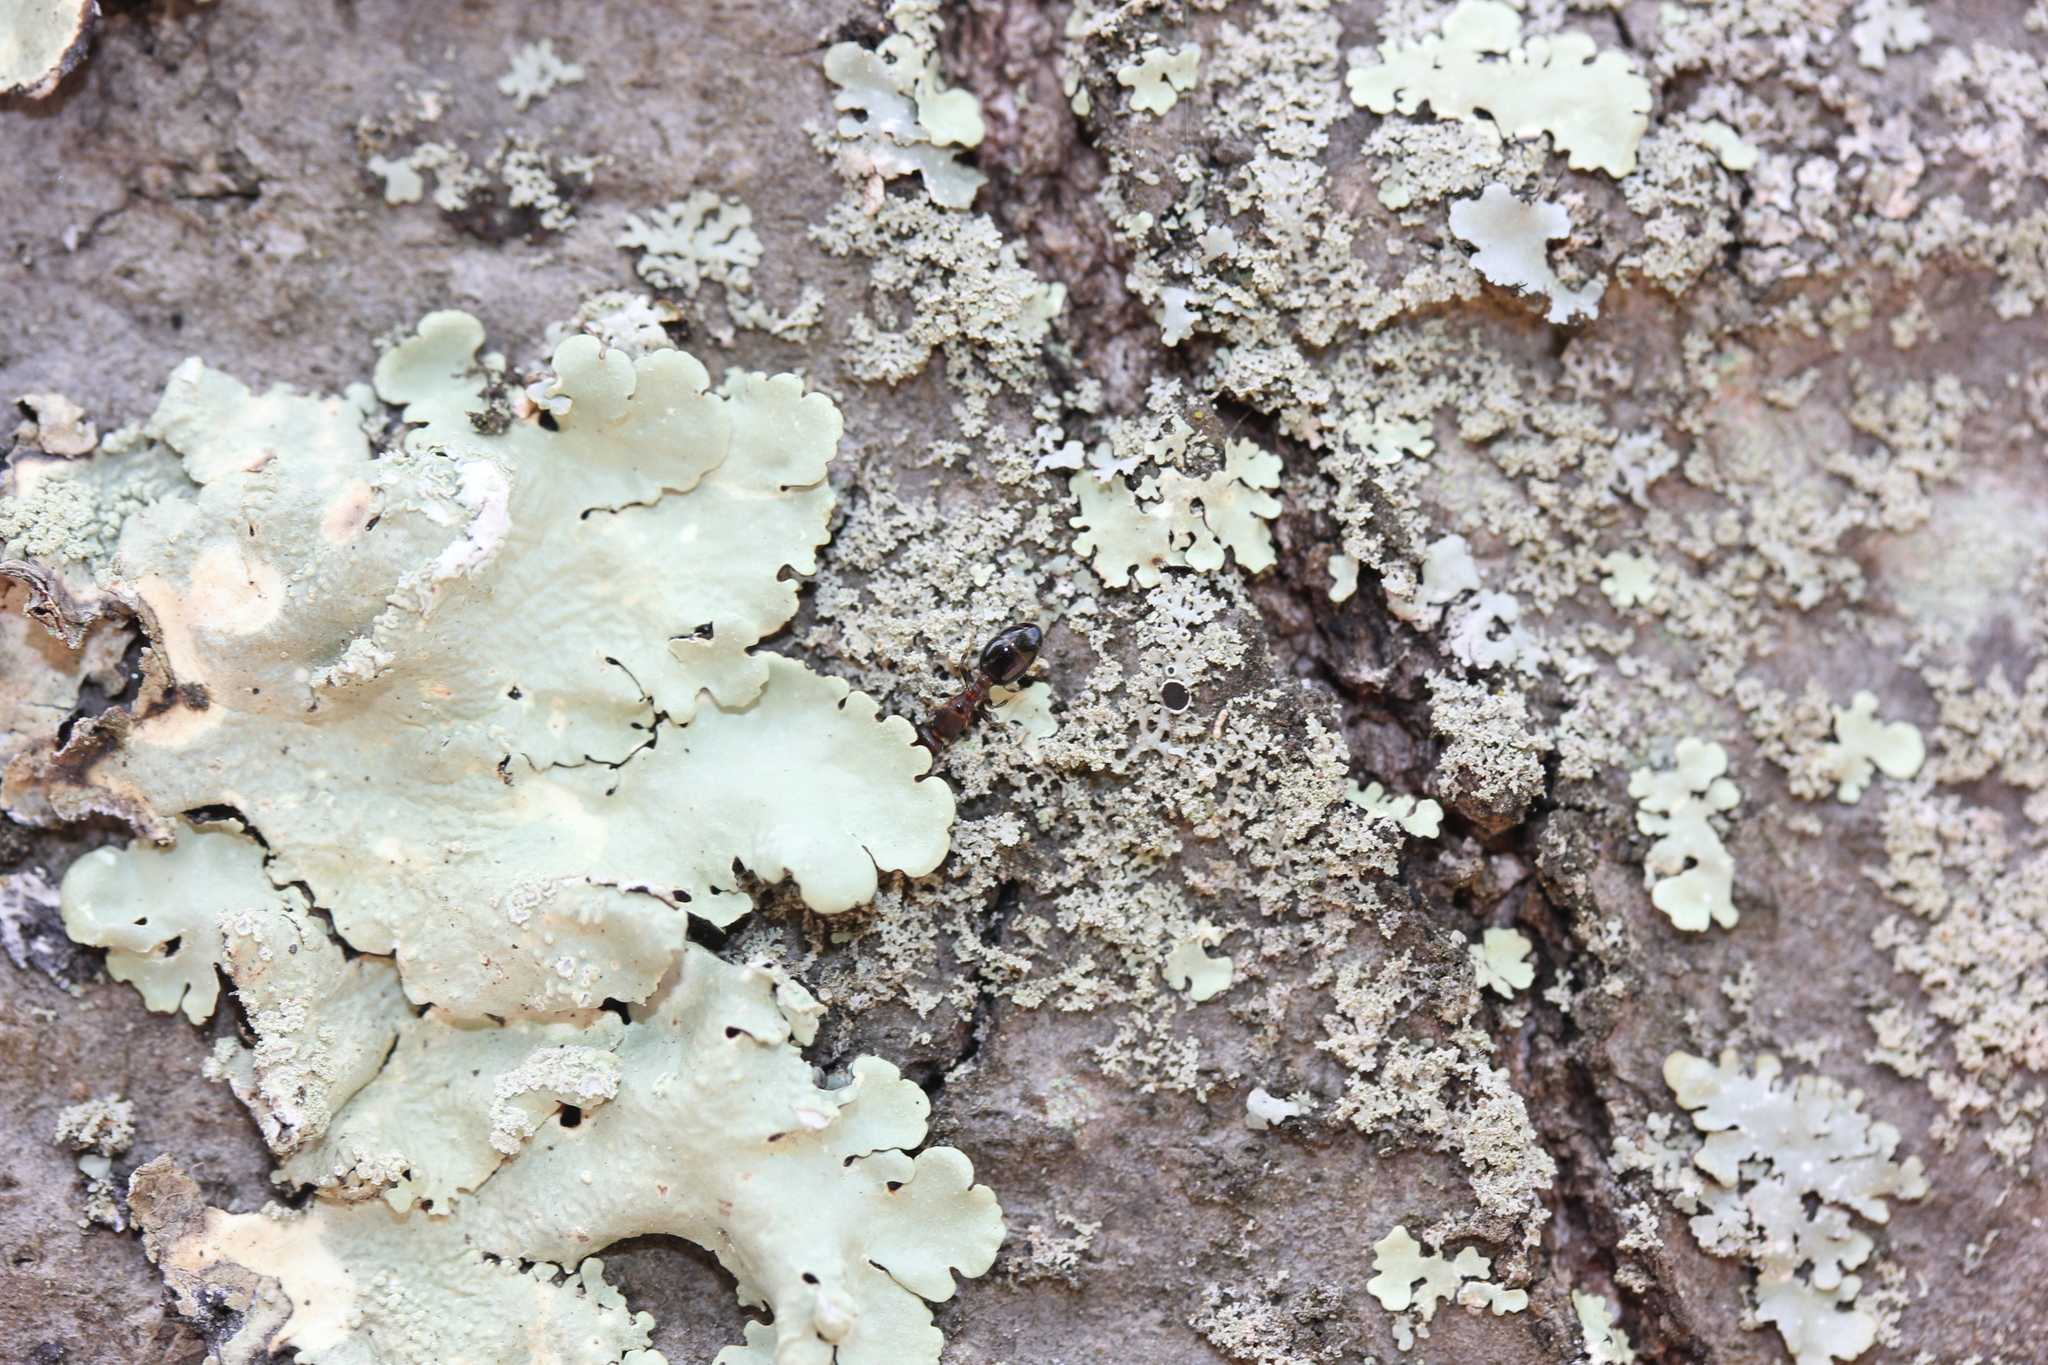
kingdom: Fungi
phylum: Ascomycota
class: Lecanoromycetes
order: Caliciales
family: Physciaceae
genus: Physcia
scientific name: Physcia millegrana
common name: Rosette lichen
